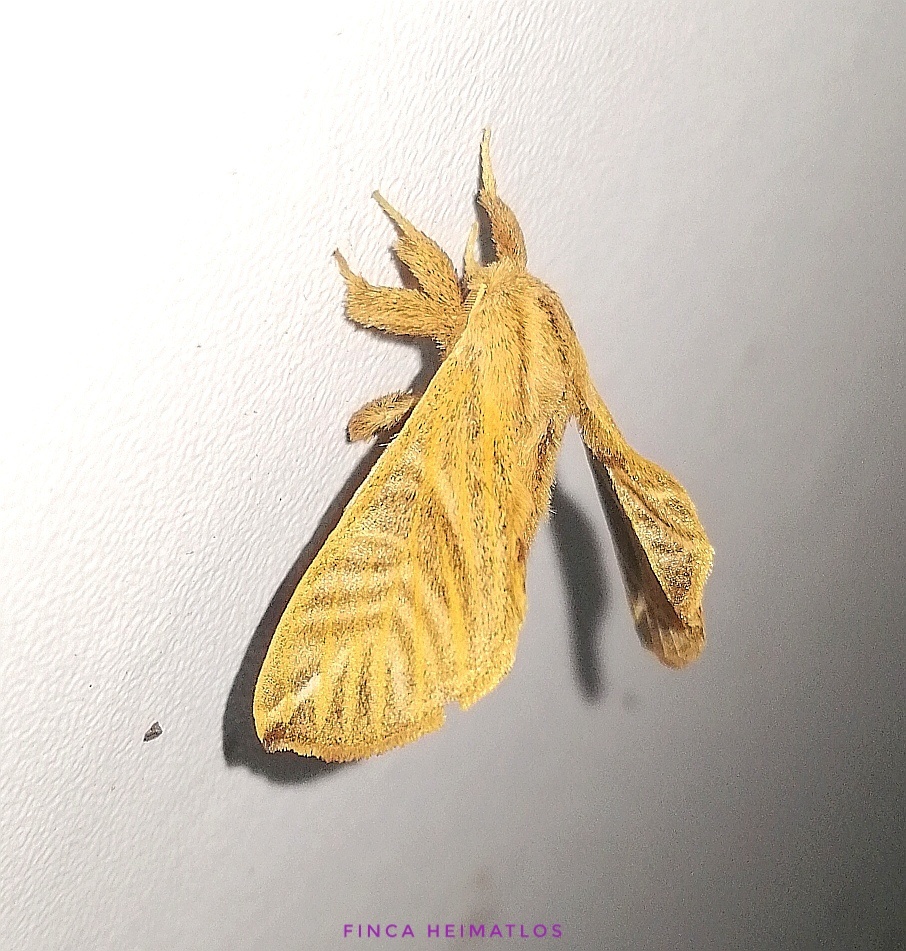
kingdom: Animalia
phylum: Arthropoda
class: Insecta
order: Lepidoptera
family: Apatelodidae
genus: Hygrochroa
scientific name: Hygrochroa Apatelodes striata
